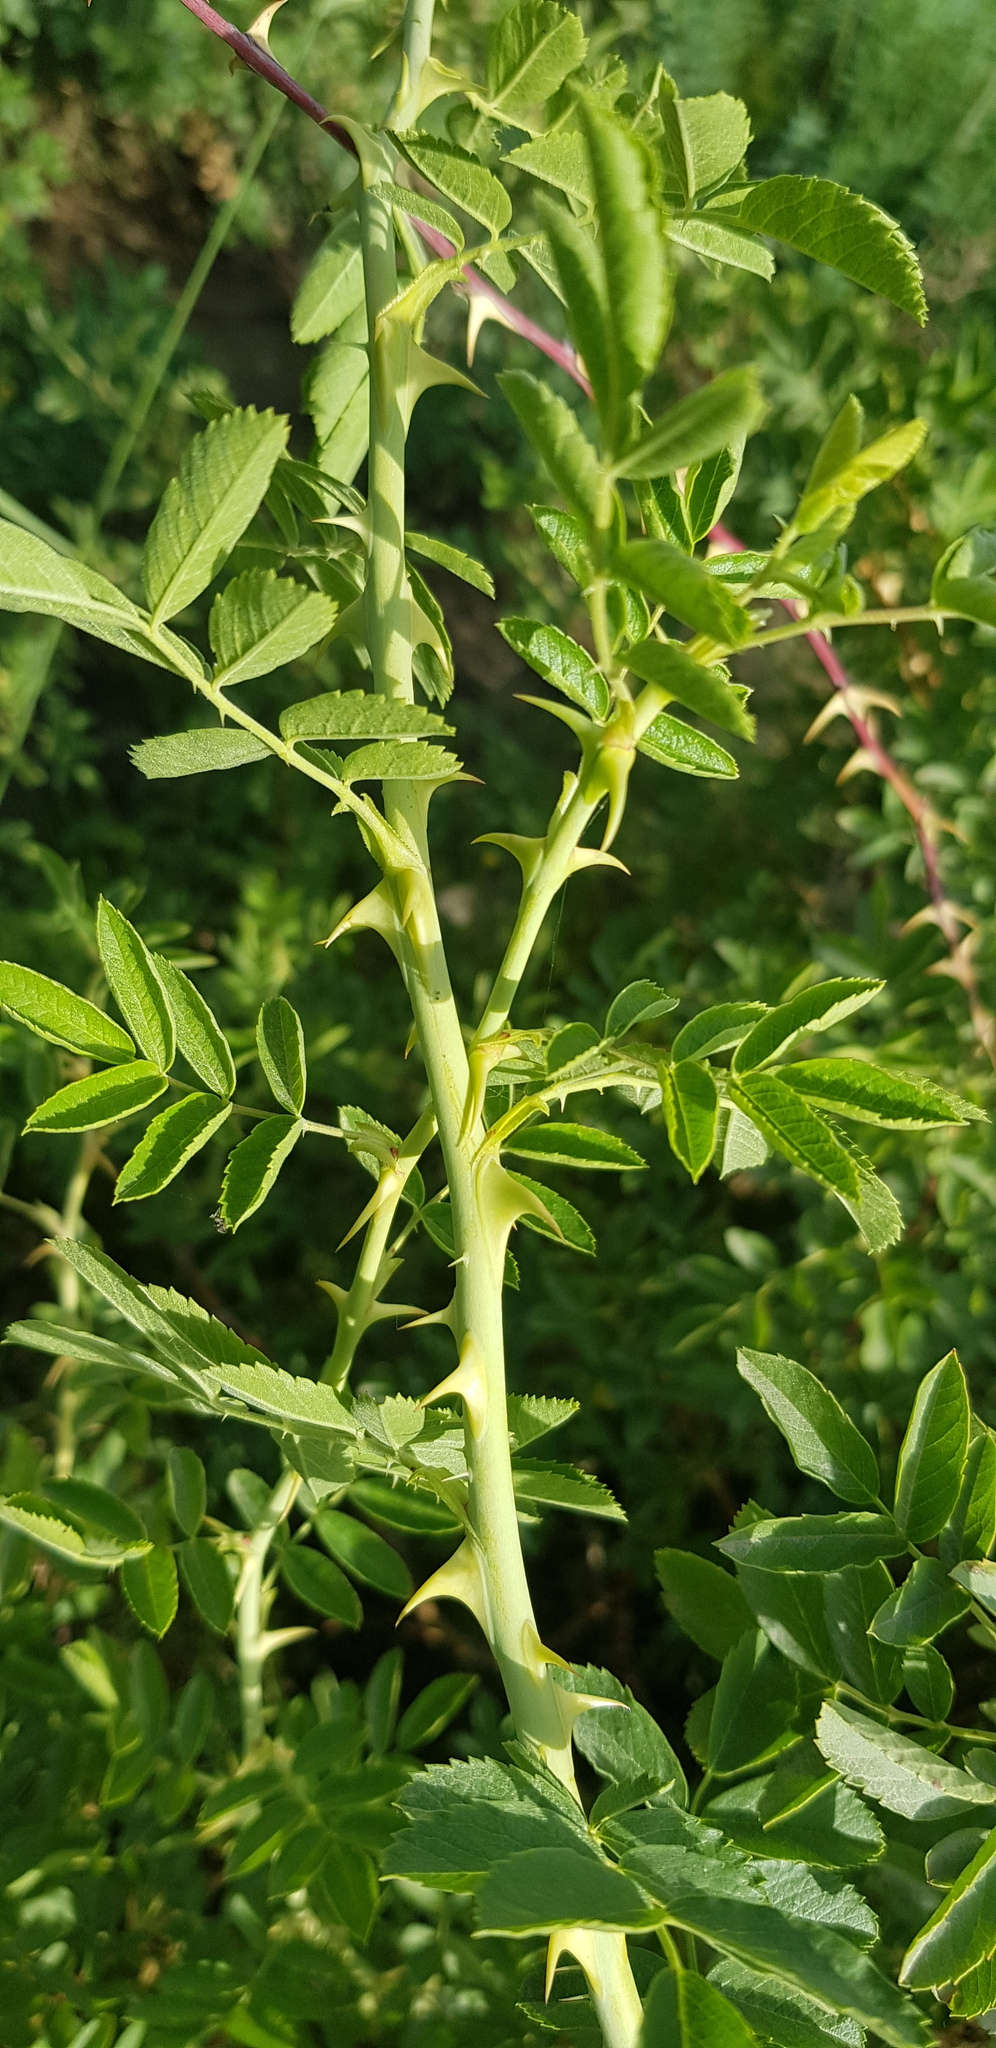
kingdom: Plantae
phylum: Tracheophyta
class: Magnoliopsida
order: Rosales
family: Rosaceae
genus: Rosa
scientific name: Rosa spinosissima
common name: Burnet rose
